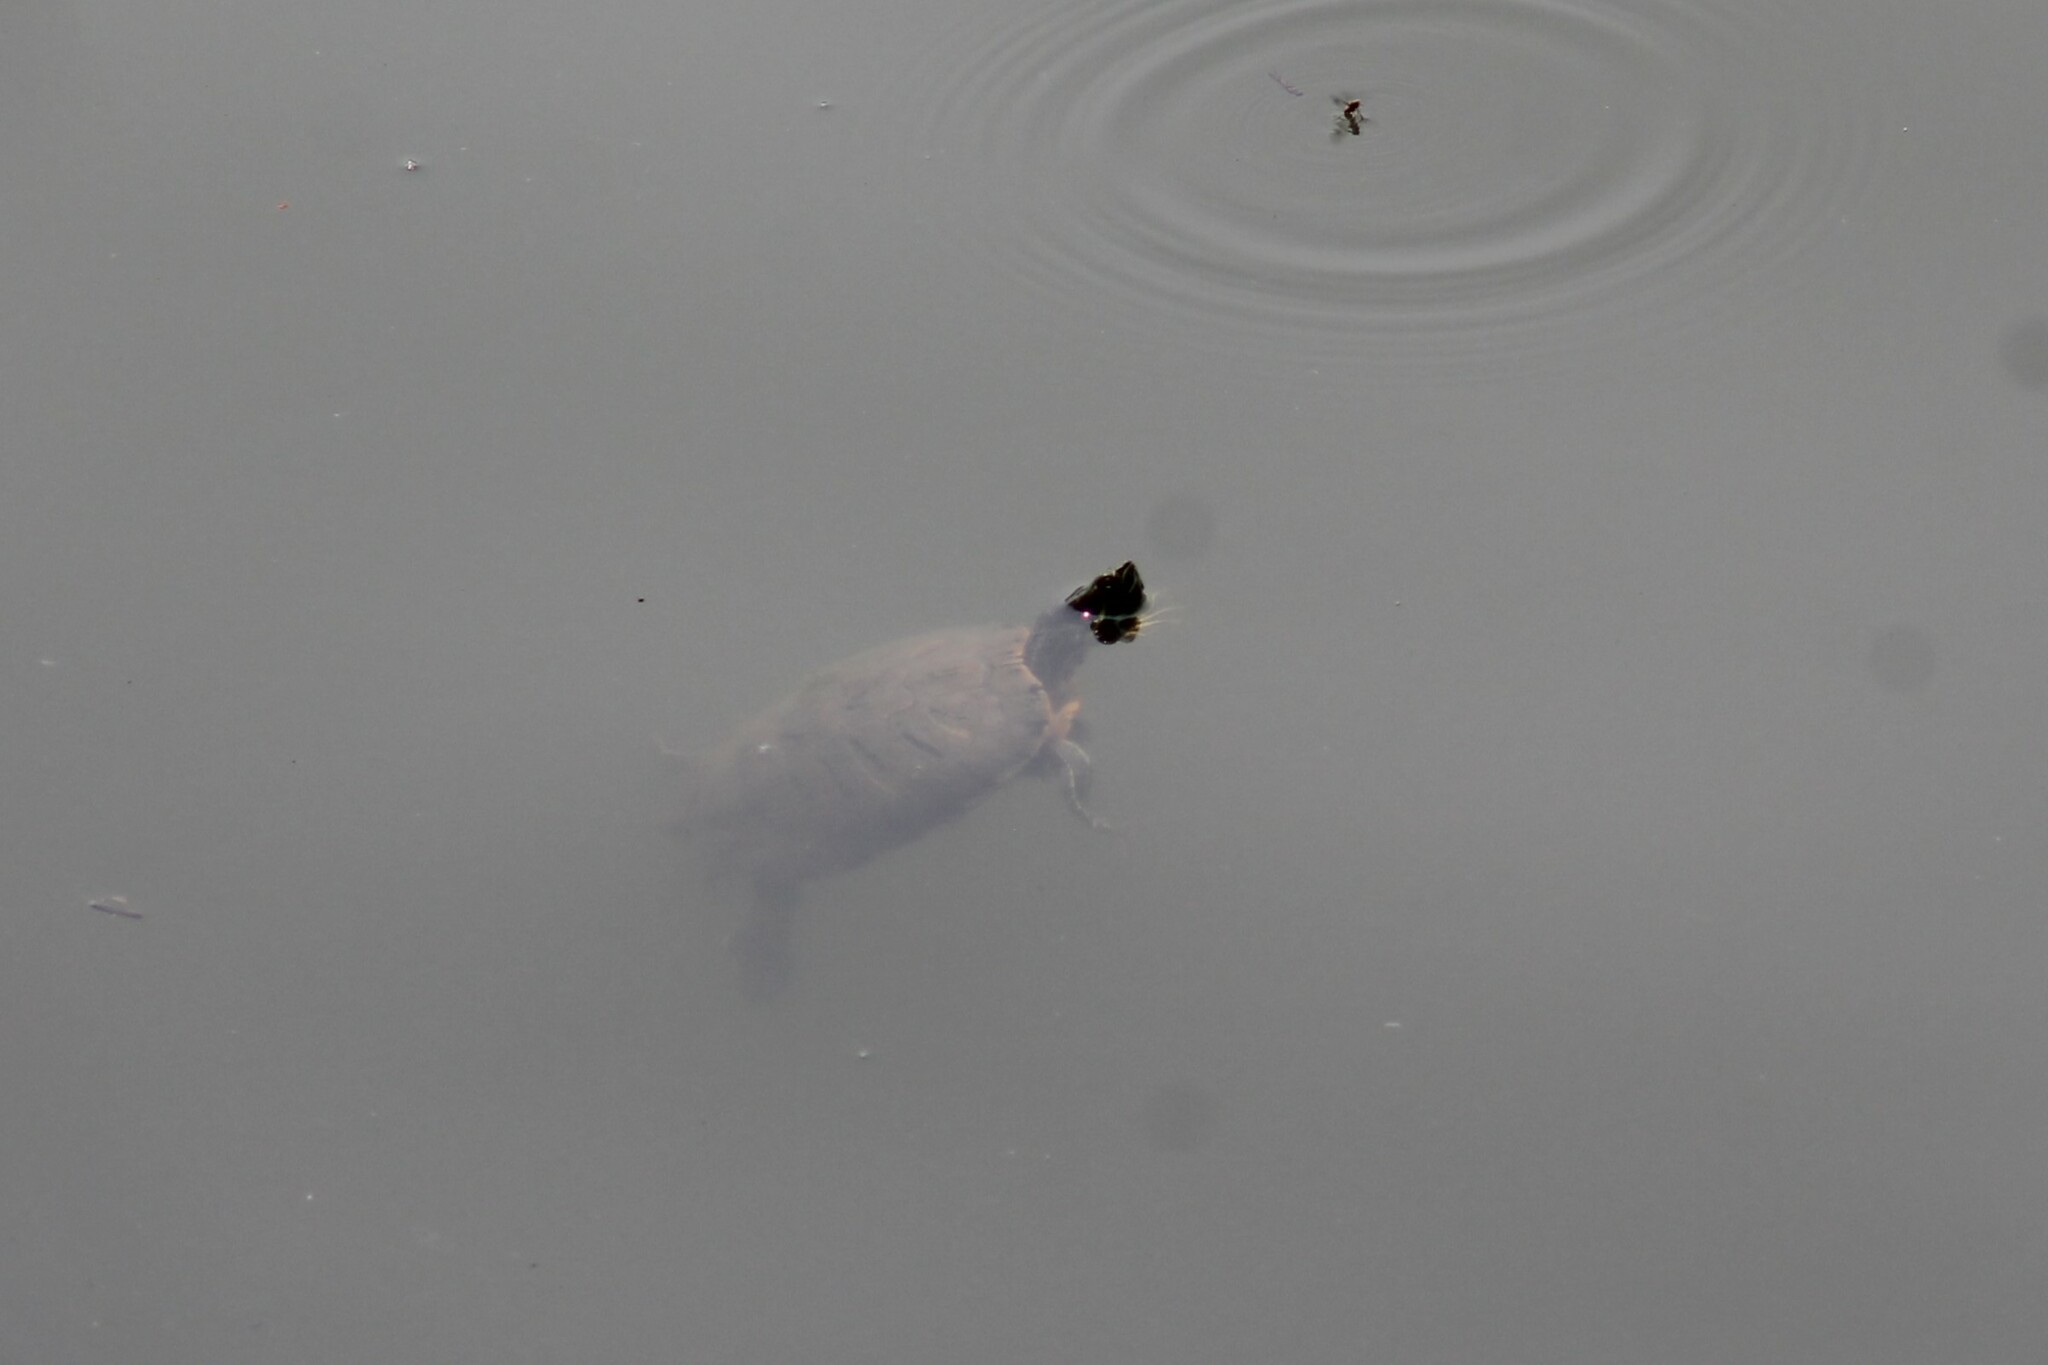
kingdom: Animalia
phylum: Chordata
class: Testudines
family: Emydidae
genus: Trachemys
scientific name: Trachemys scripta
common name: Slider
